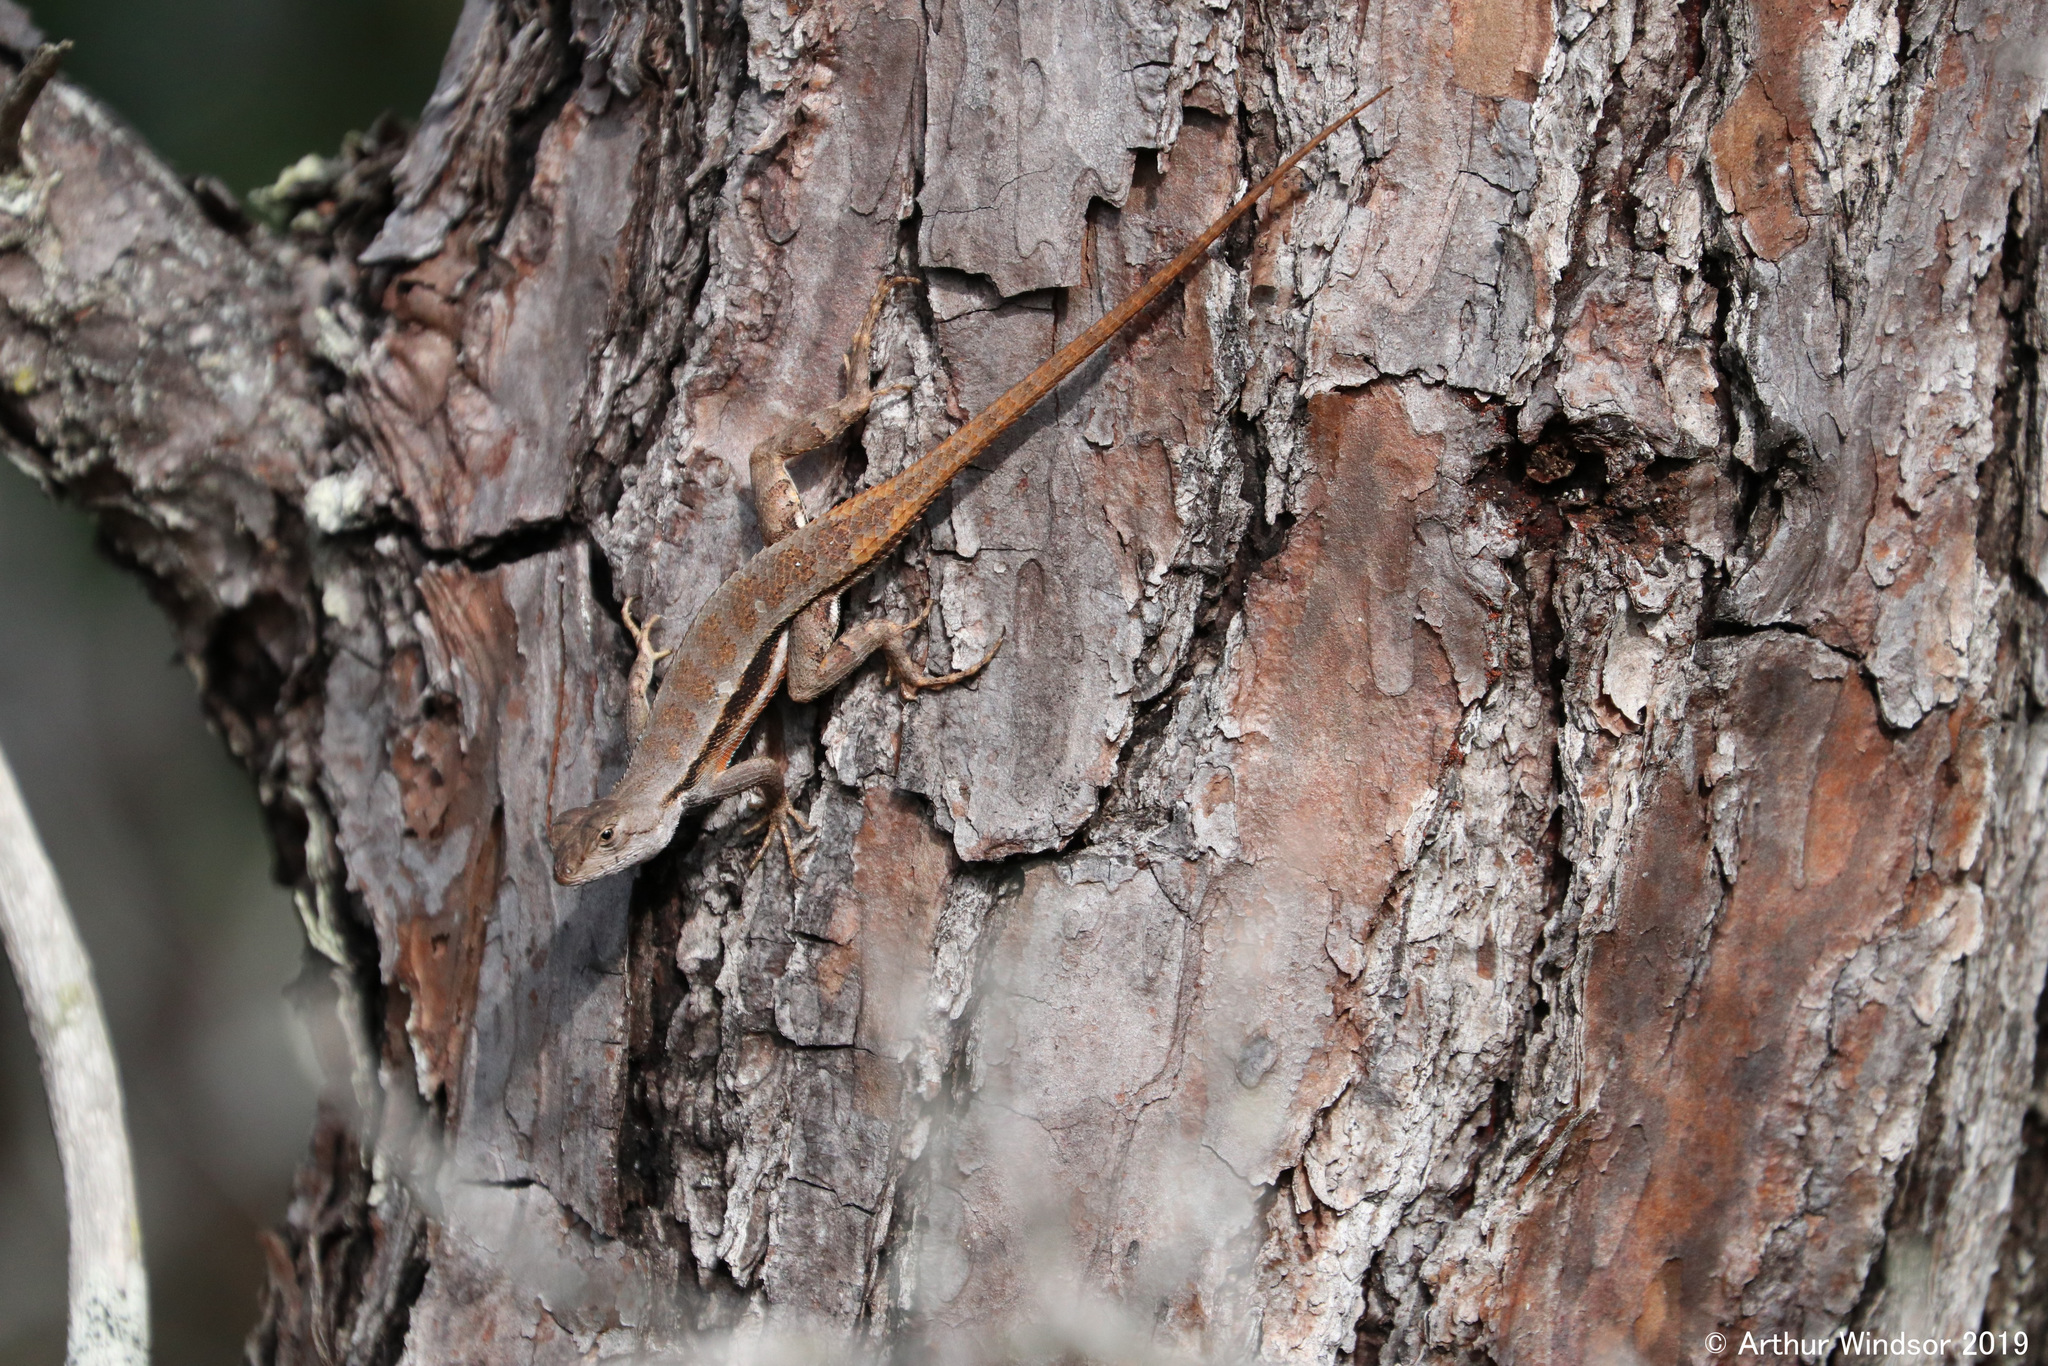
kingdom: Animalia
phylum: Chordata
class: Squamata
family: Phrynosomatidae
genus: Sceloporus
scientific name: Sceloporus woodi
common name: Florida scrub lizard
